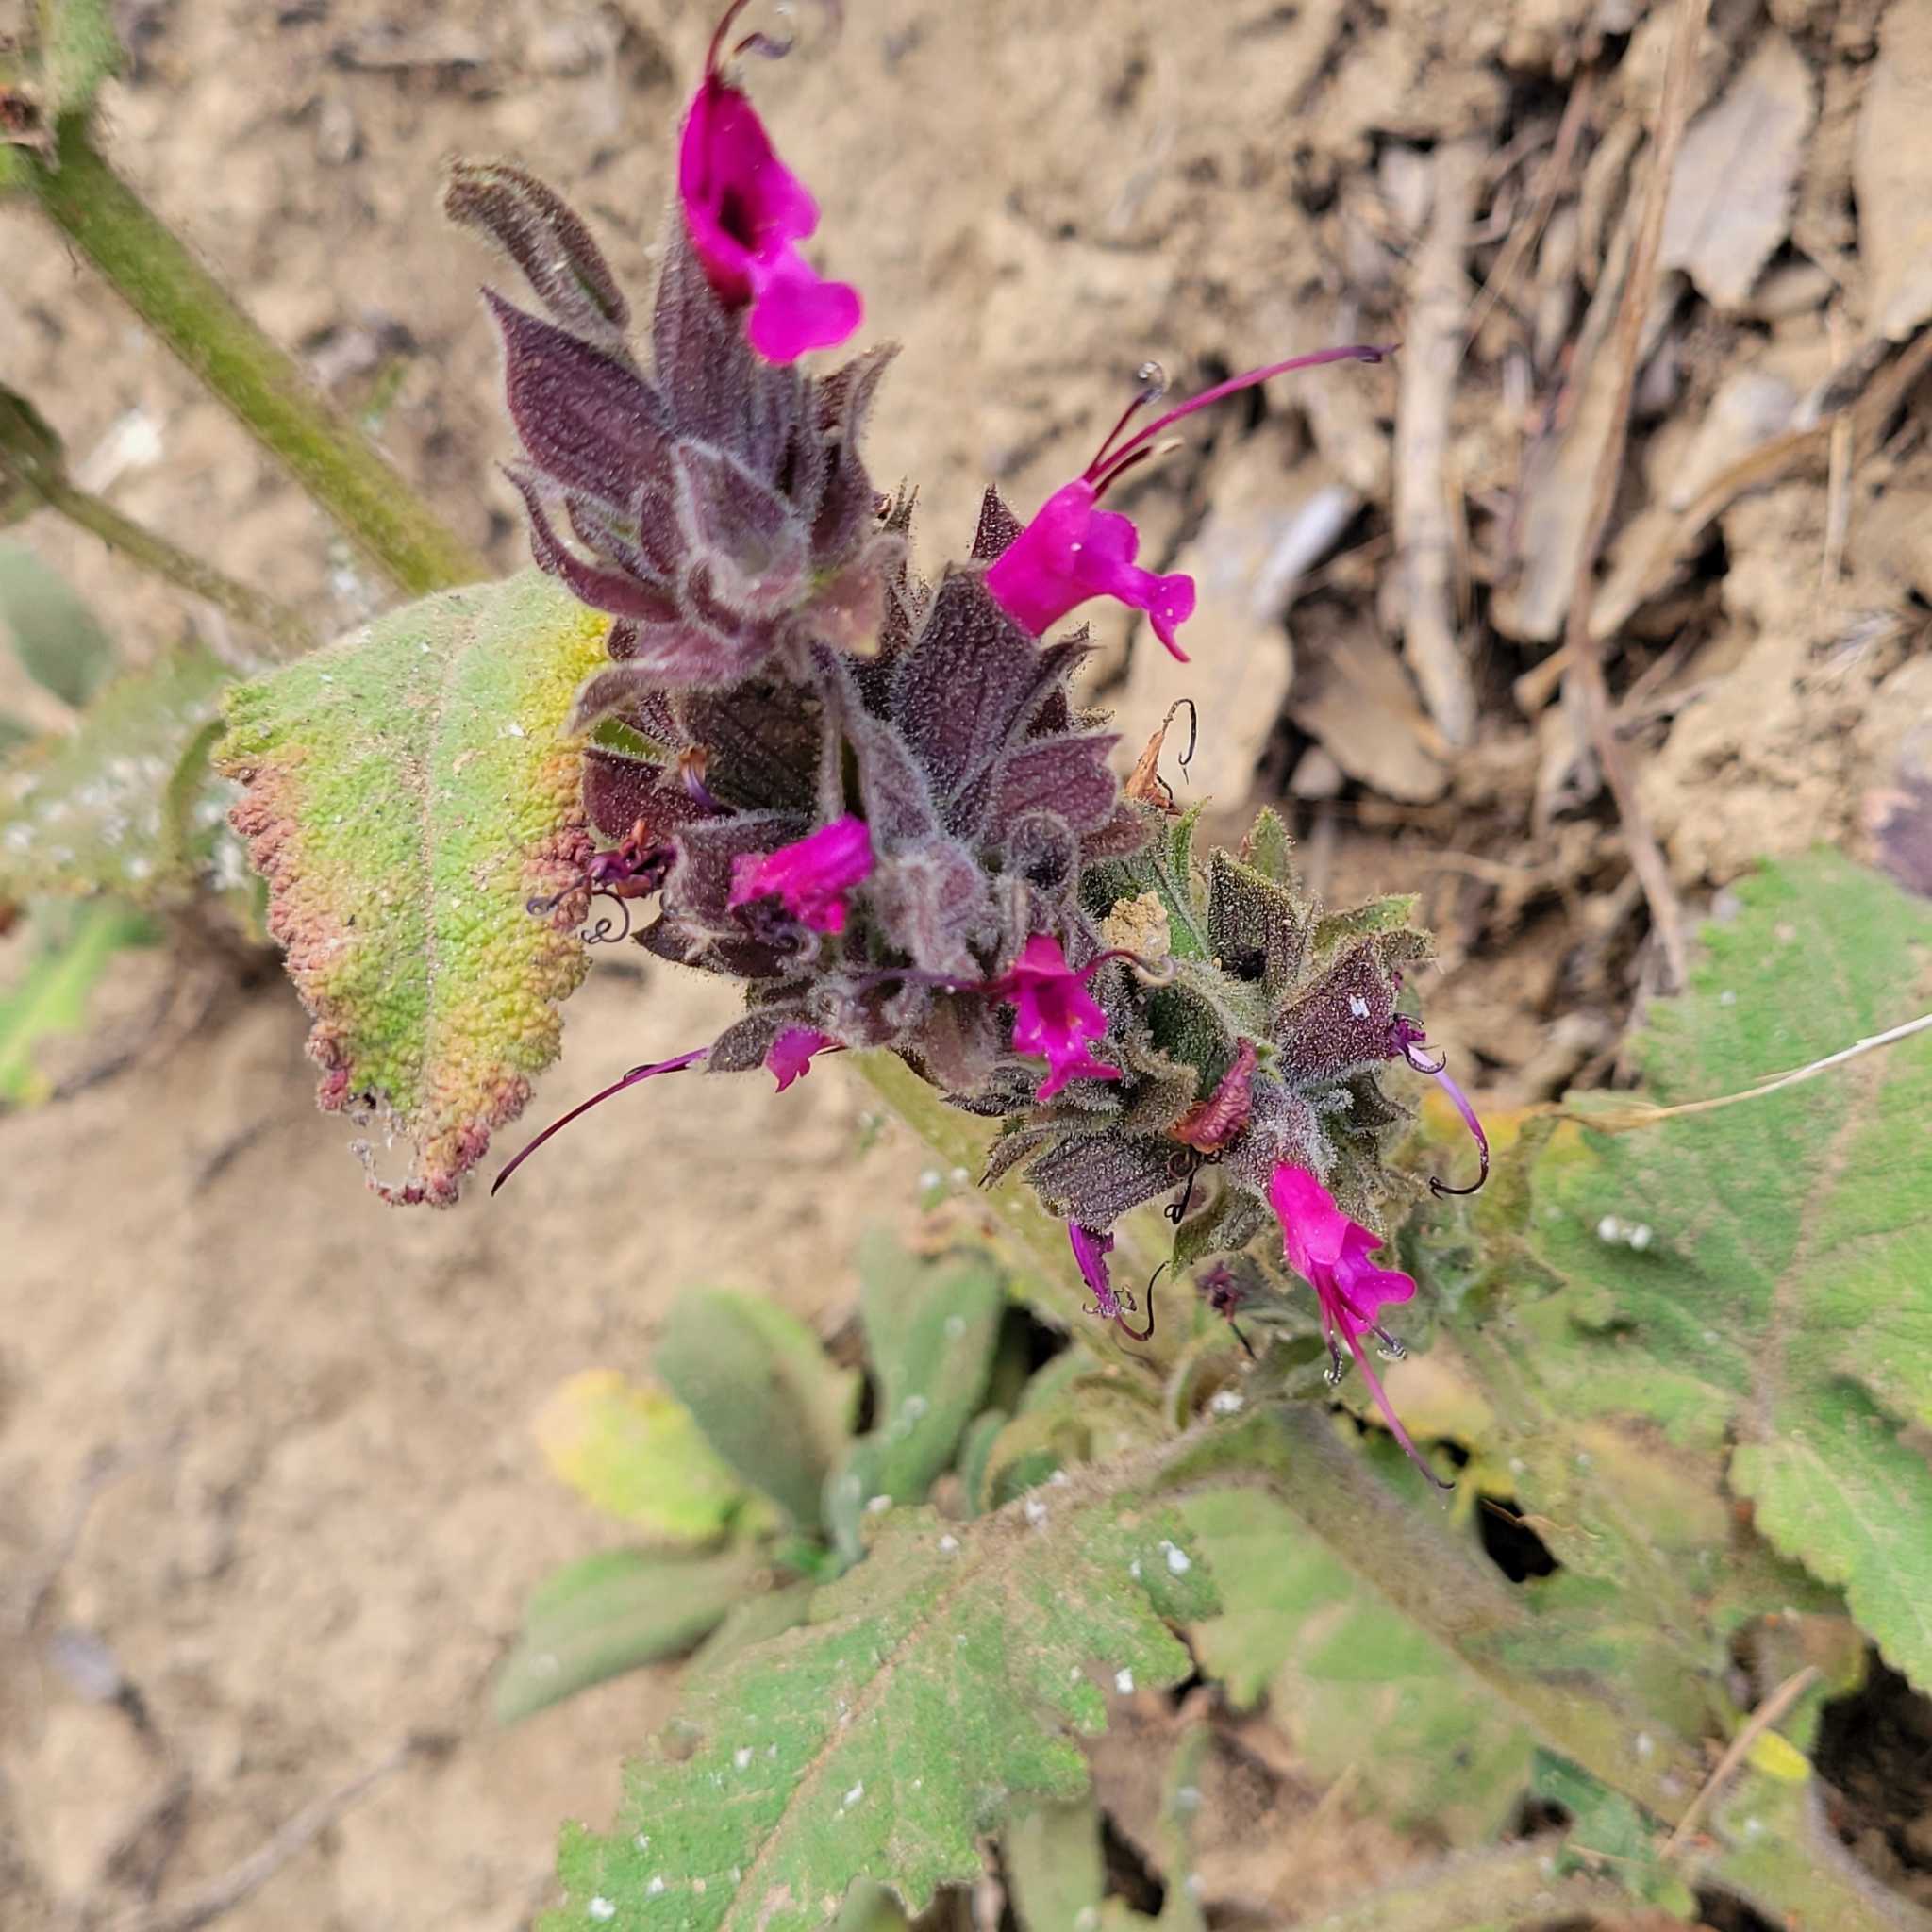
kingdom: Plantae
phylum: Tracheophyta
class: Magnoliopsida
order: Lamiales
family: Lamiaceae
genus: Salvia
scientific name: Salvia spathacea
